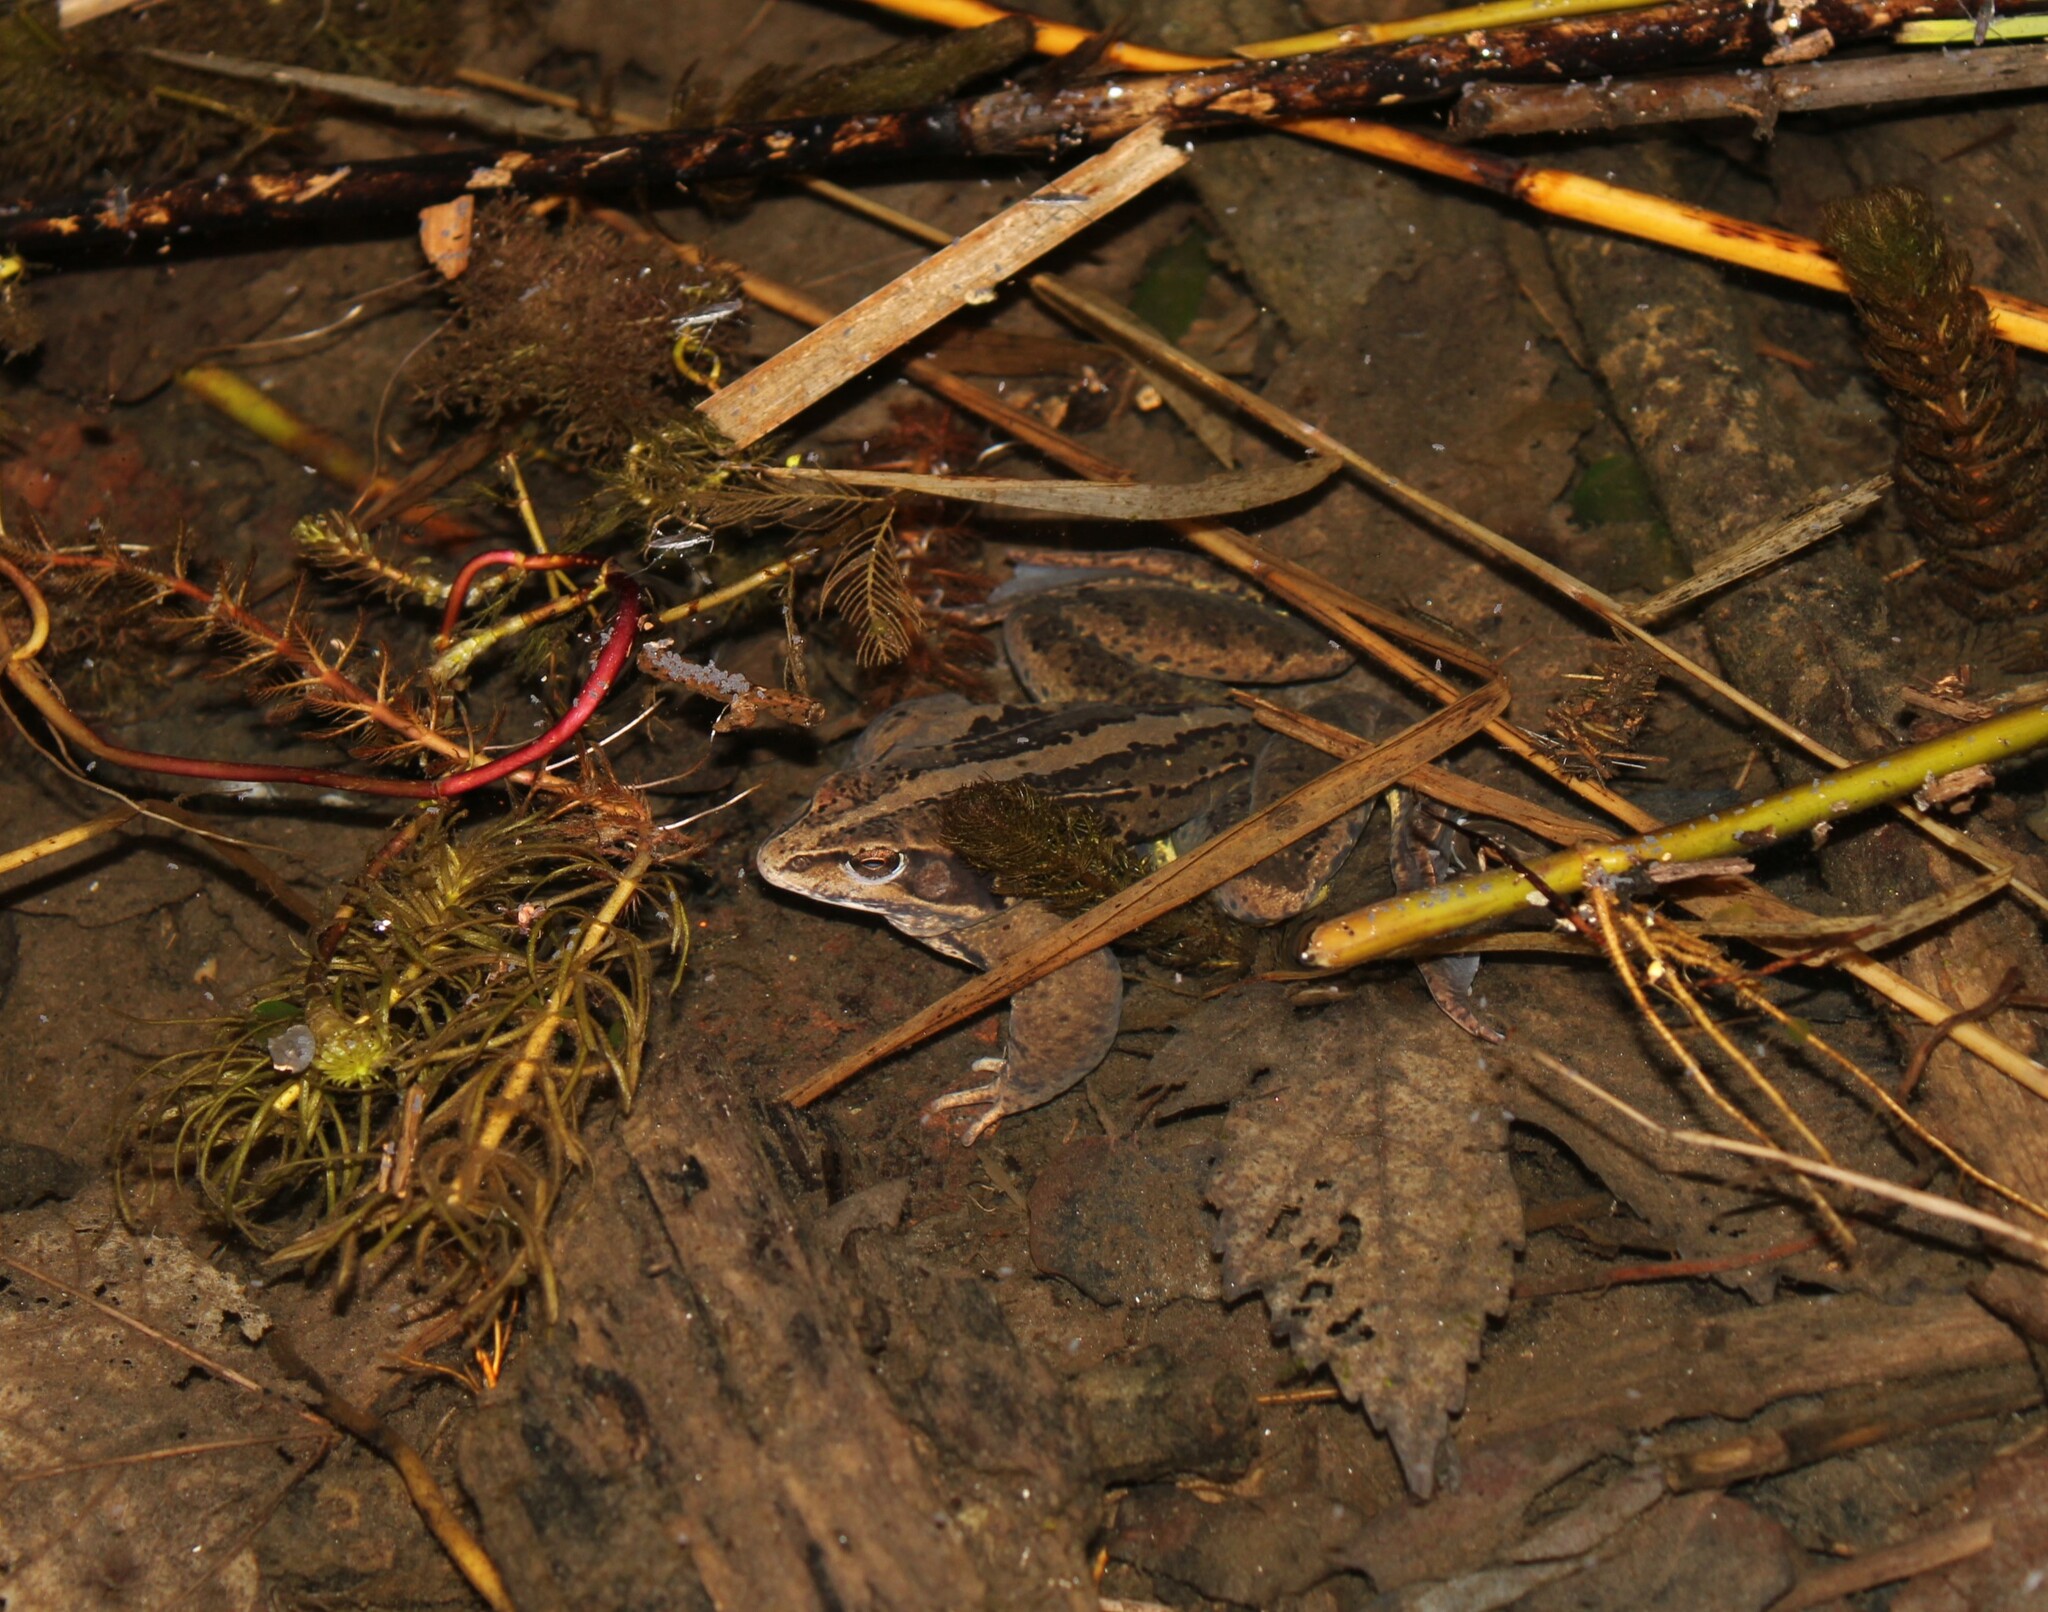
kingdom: Animalia
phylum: Chordata
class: Amphibia
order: Anura
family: Ranidae
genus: Rana
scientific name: Rana arvalis
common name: Moor frog
